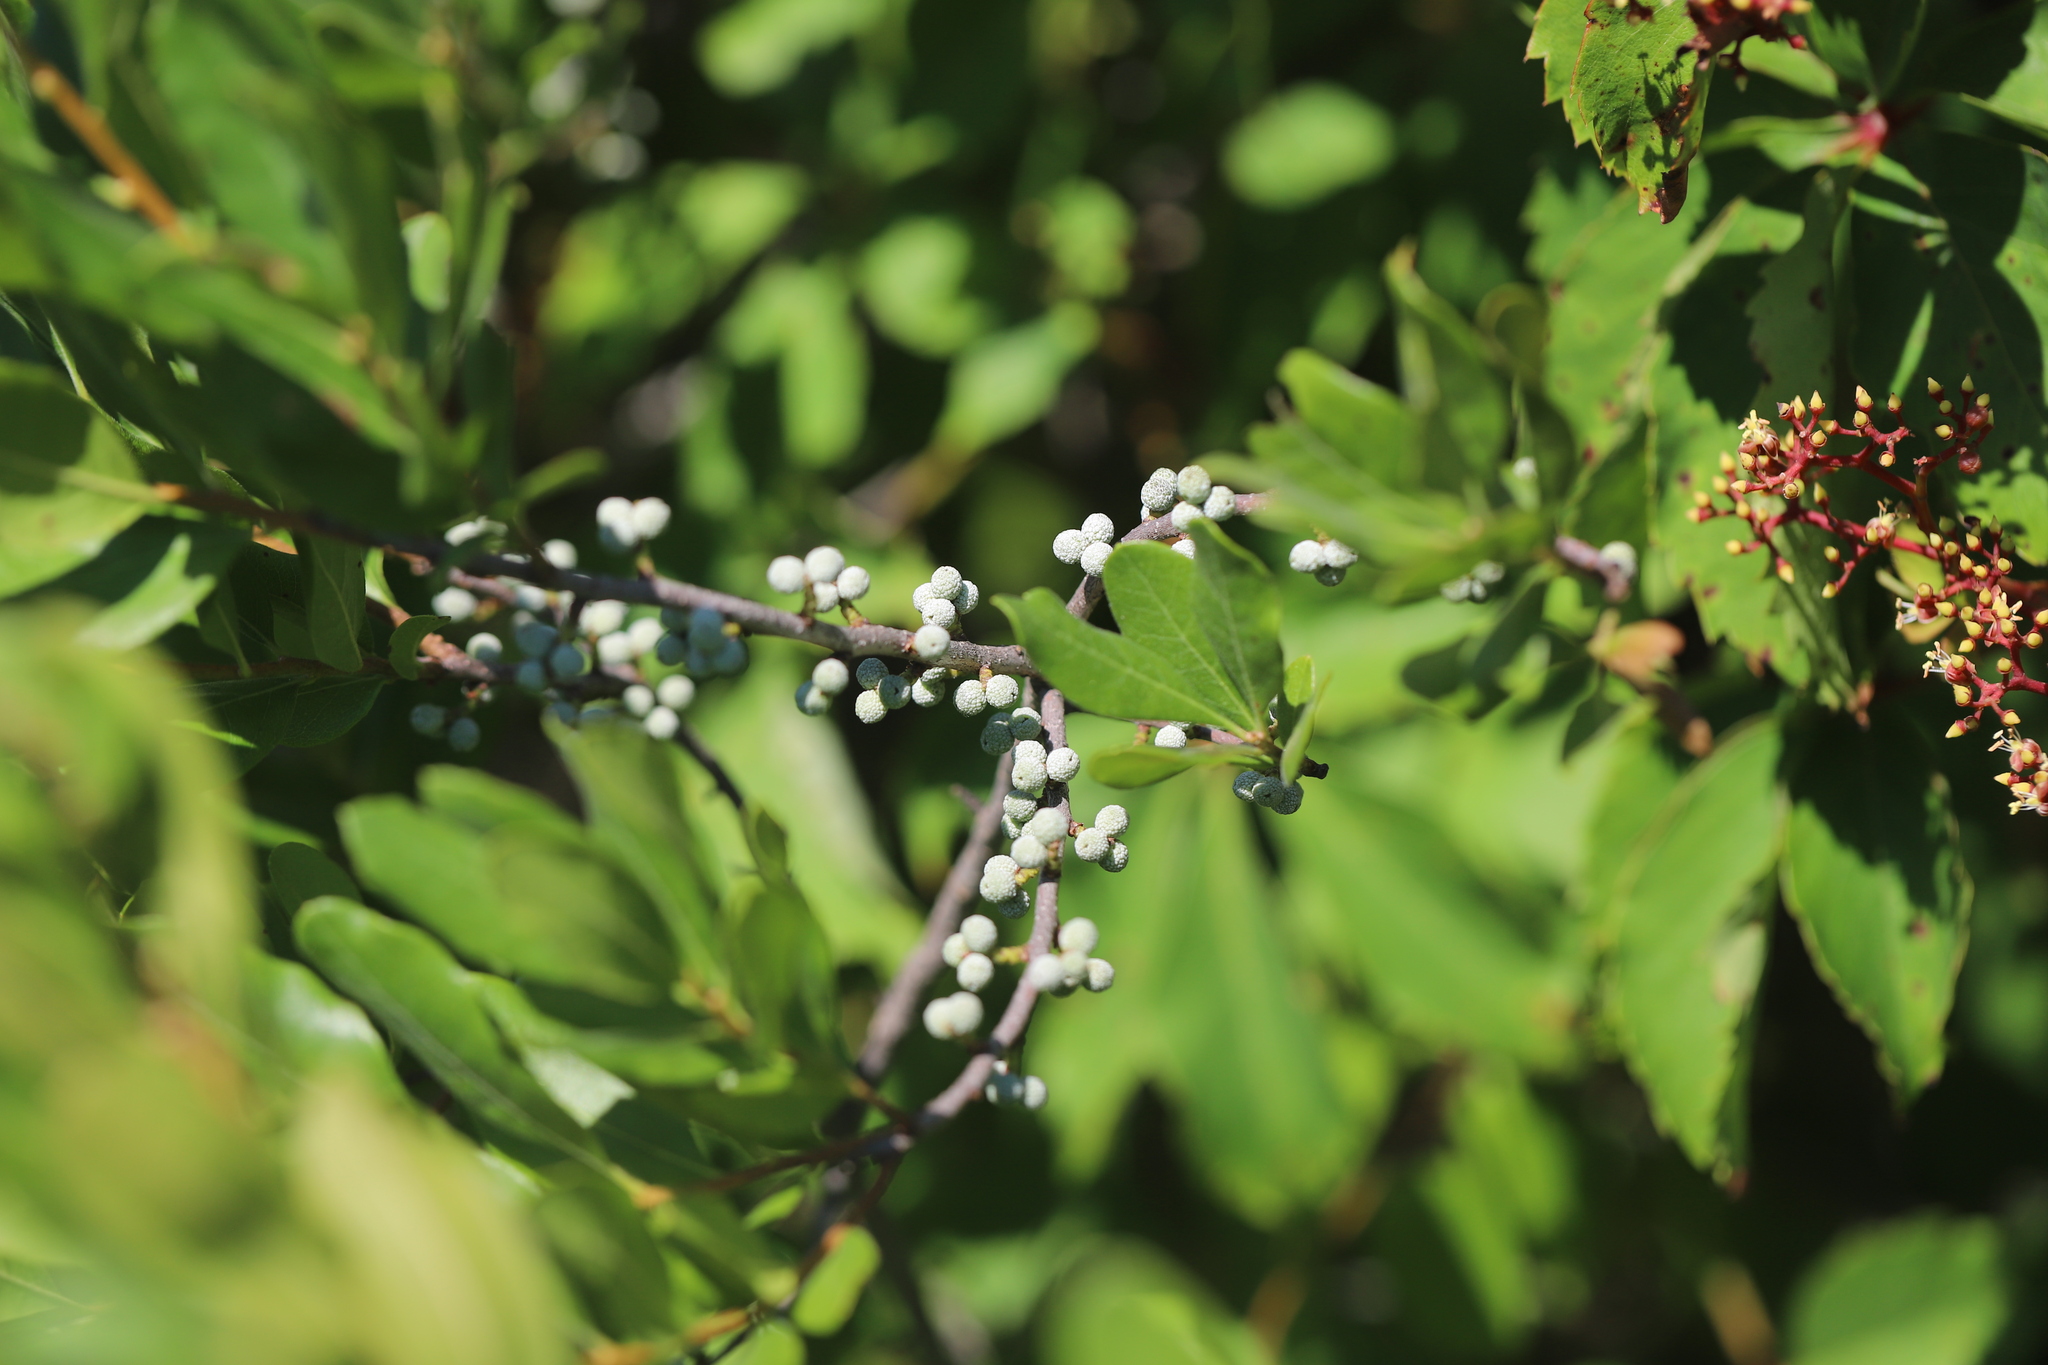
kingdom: Plantae
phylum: Tracheophyta
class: Magnoliopsida
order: Fagales
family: Myricaceae
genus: Morella
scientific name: Morella pensylvanica
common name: Northern bayberry
